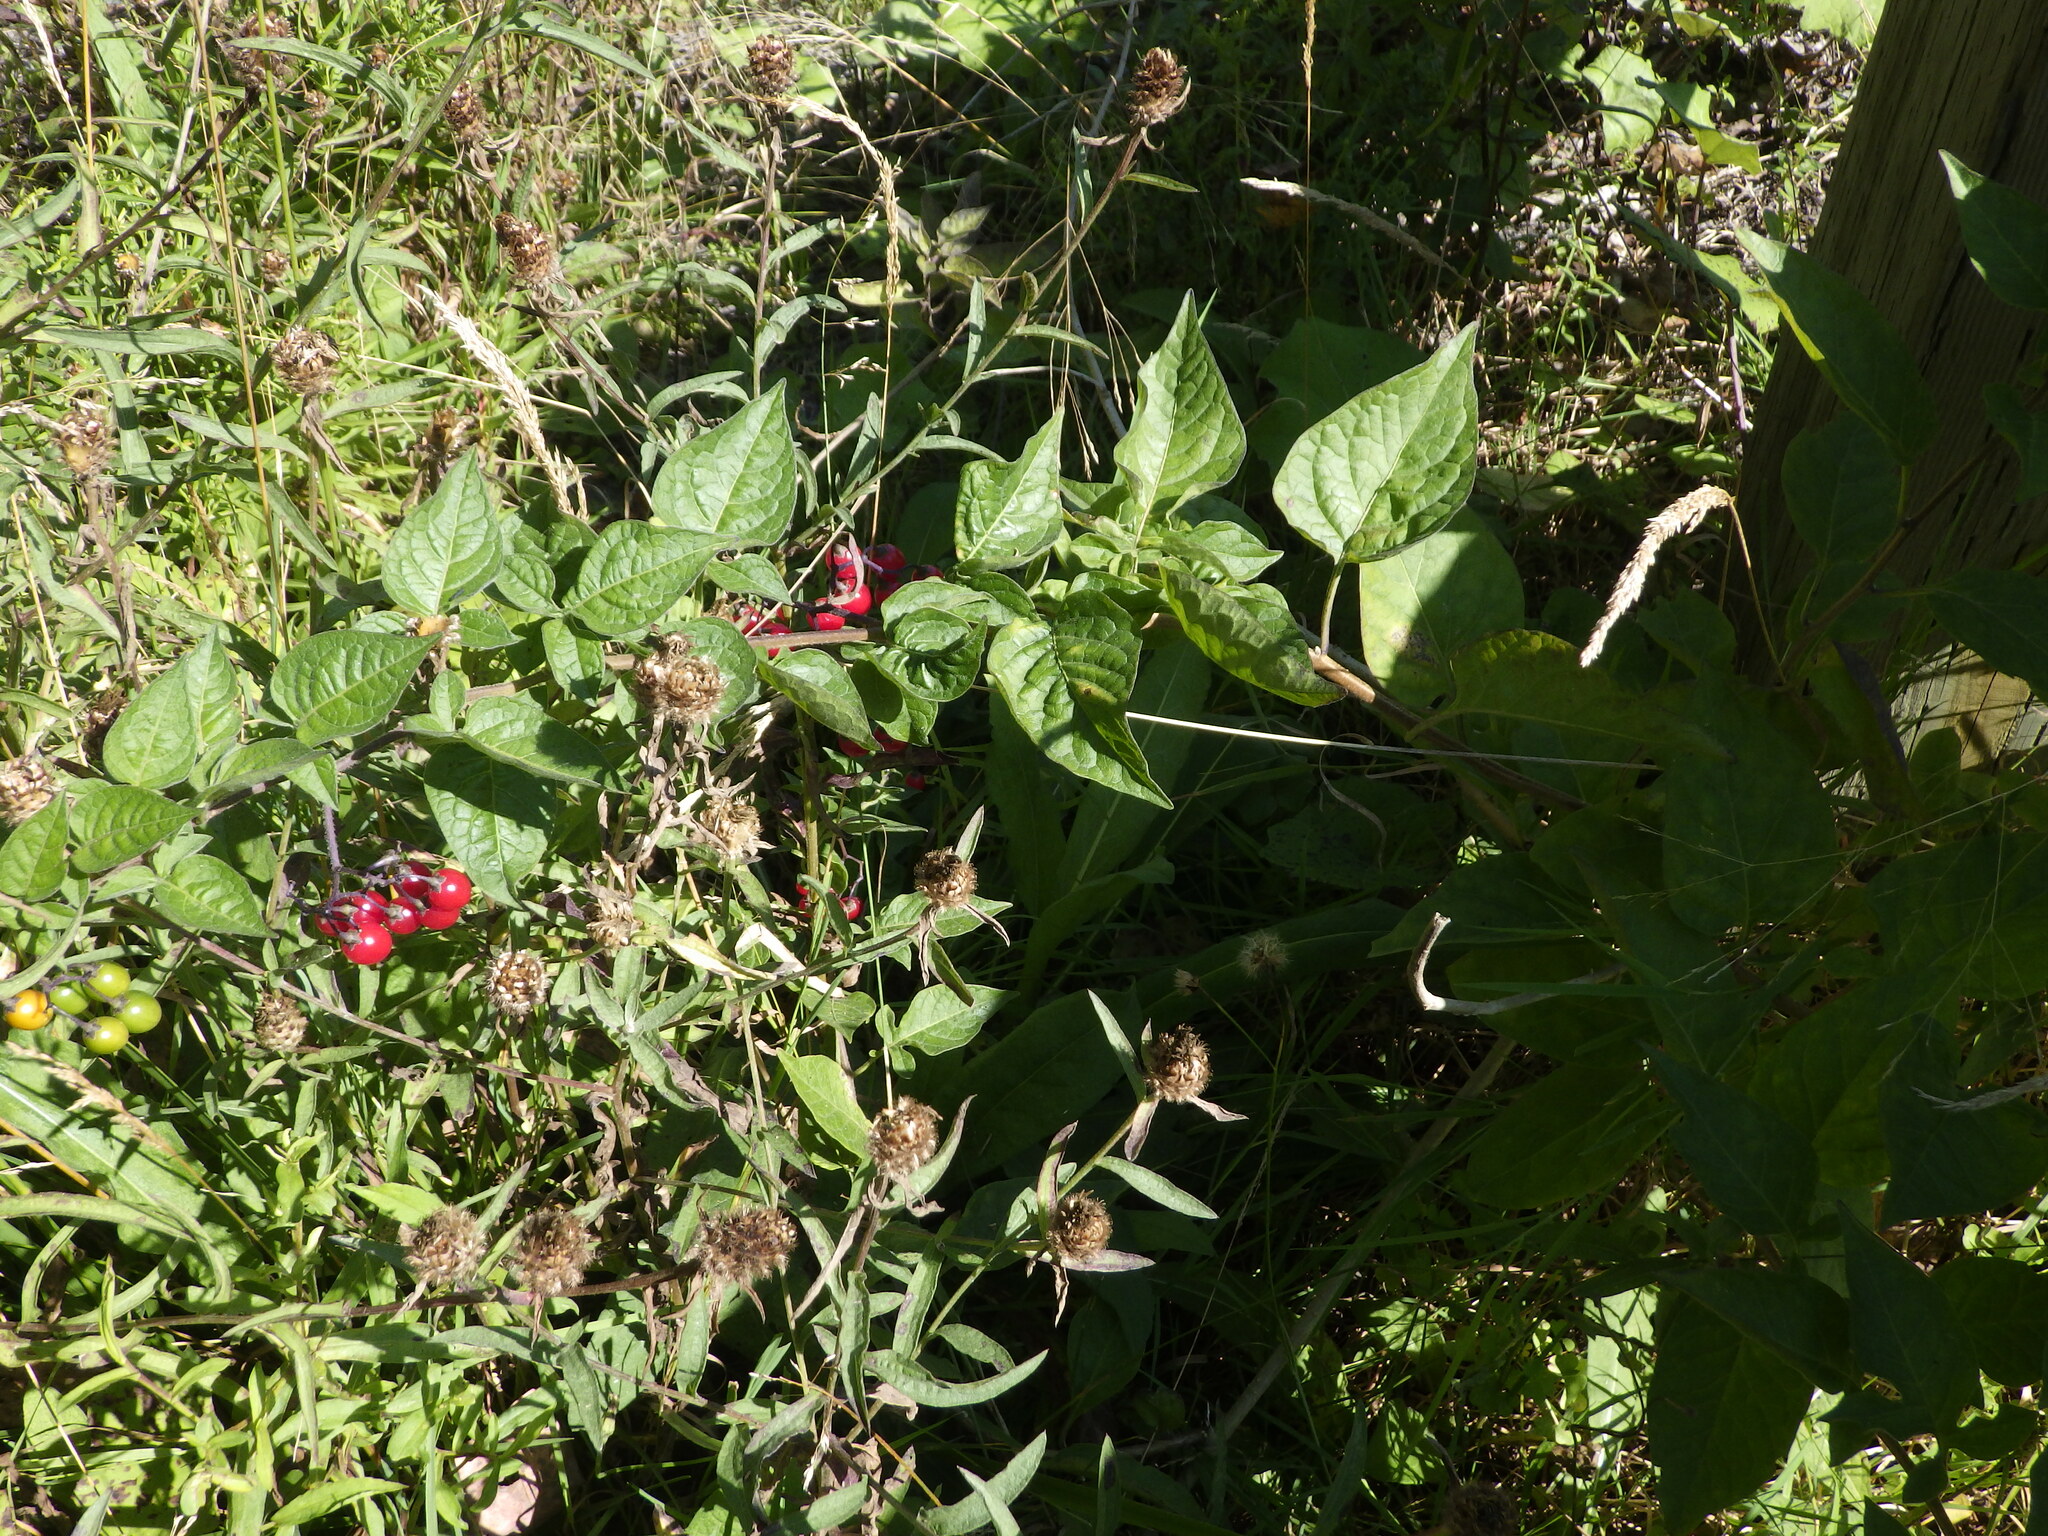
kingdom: Plantae
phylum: Tracheophyta
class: Magnoliopsida
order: Solanales
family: Solanaceae
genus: Solanum
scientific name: Solanum dulcamara
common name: Climbing nightshade
